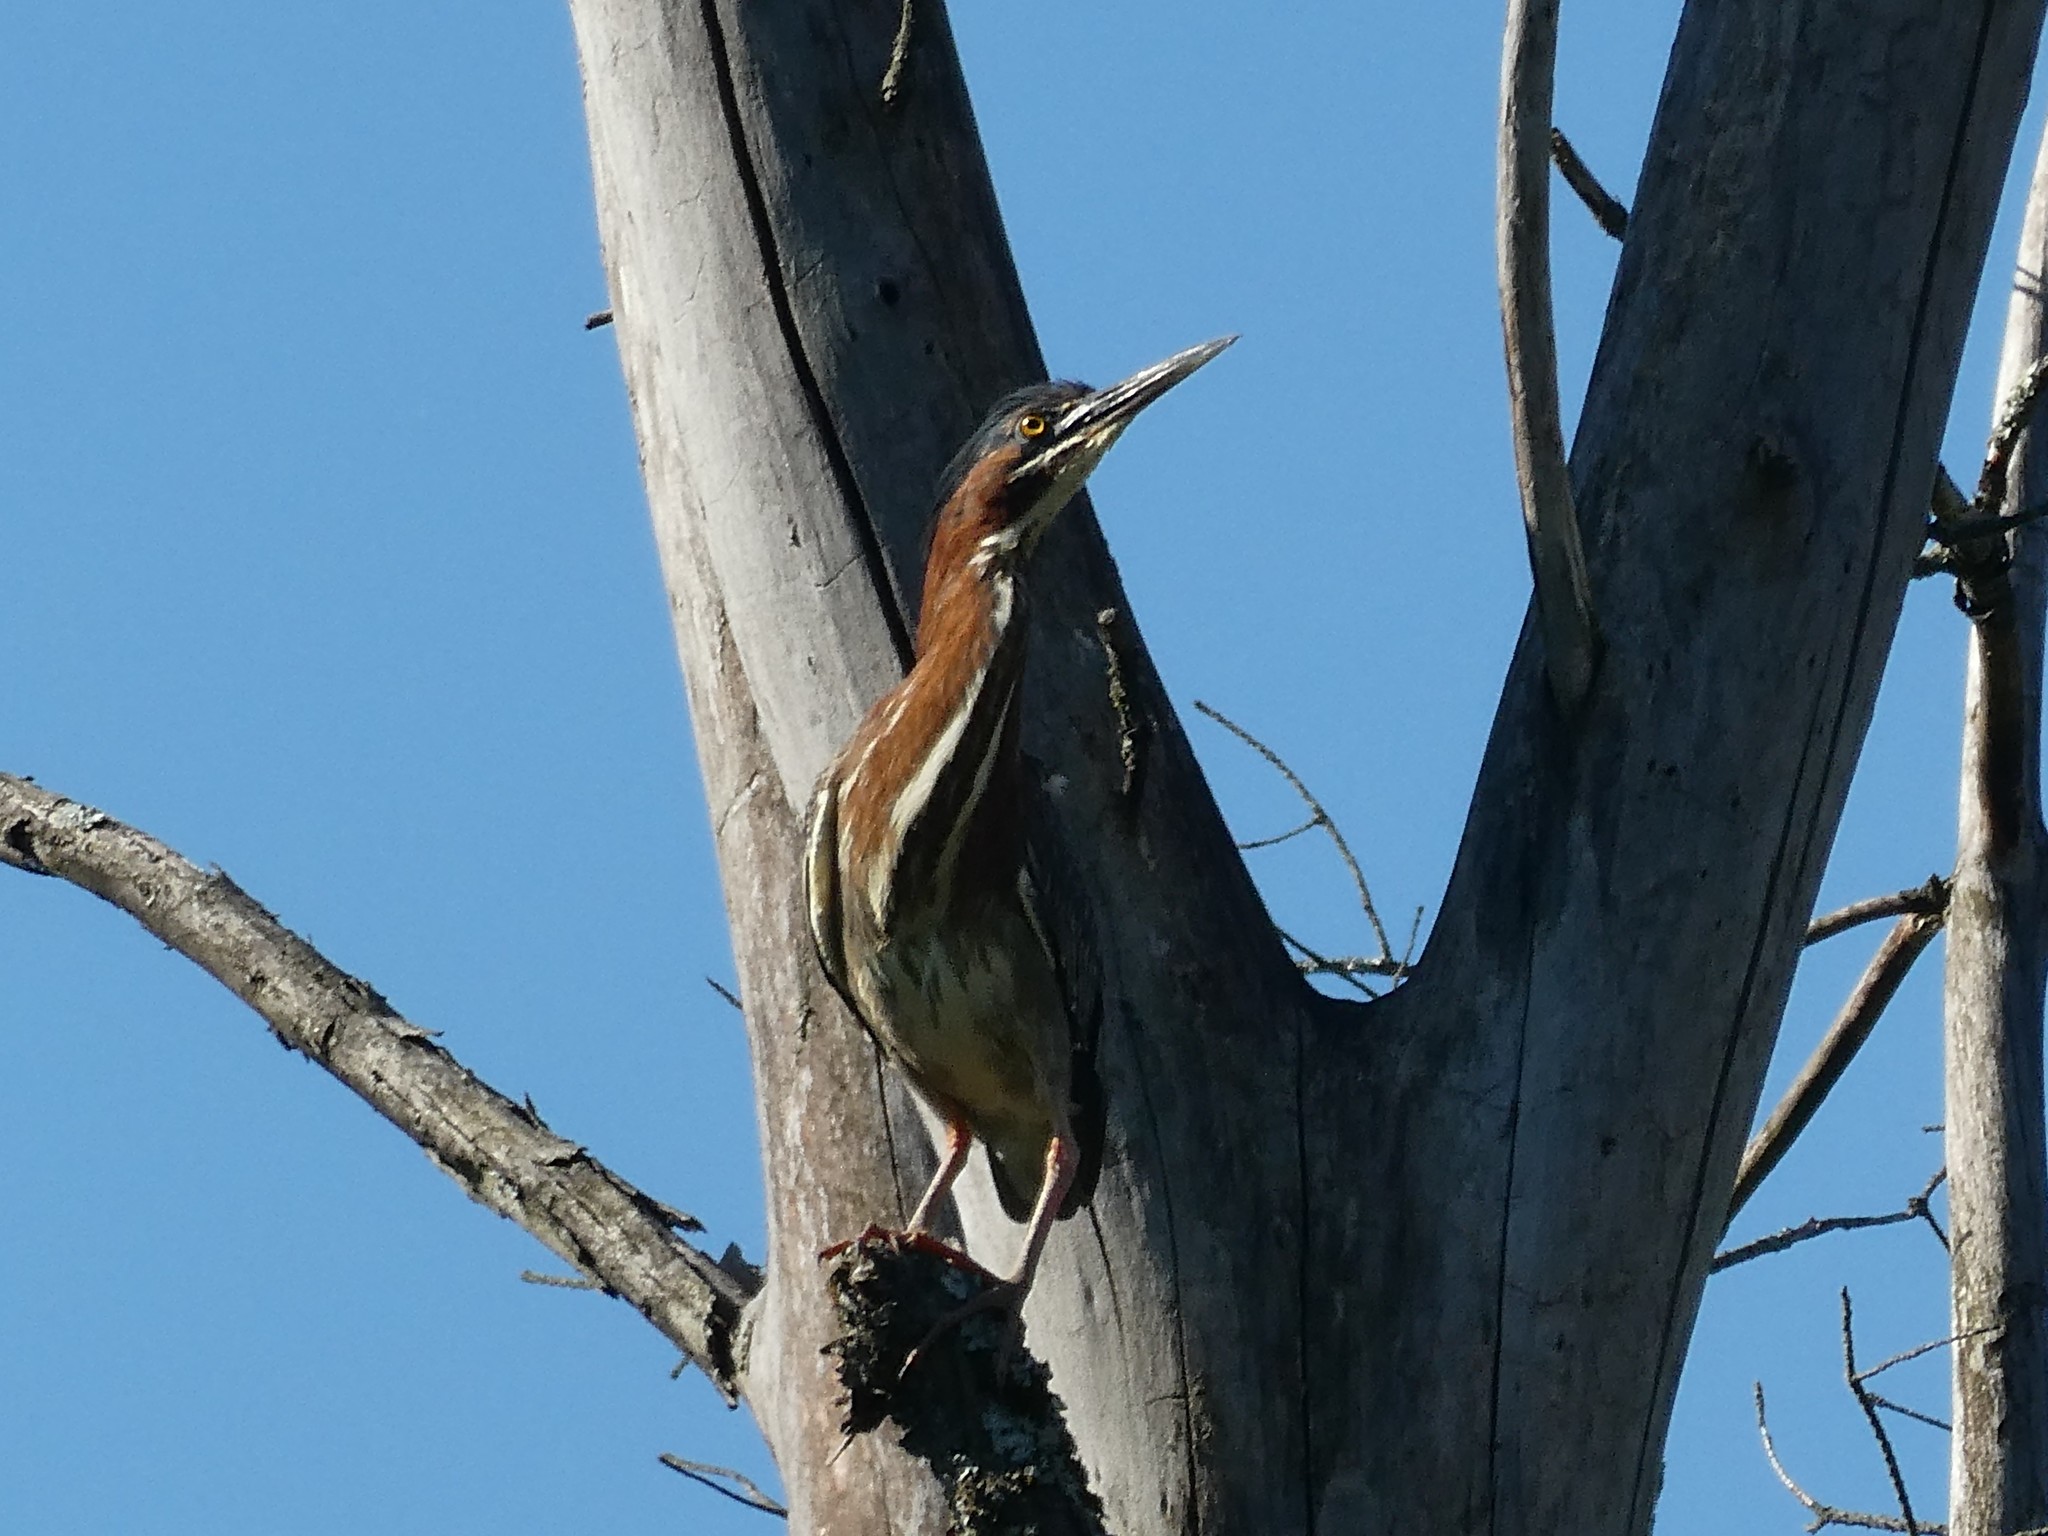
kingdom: Animalia
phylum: Chordata
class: Aves
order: Pelecaniformes
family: Ardeidae
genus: Butorides
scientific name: Butorides virescens
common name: Green heron
